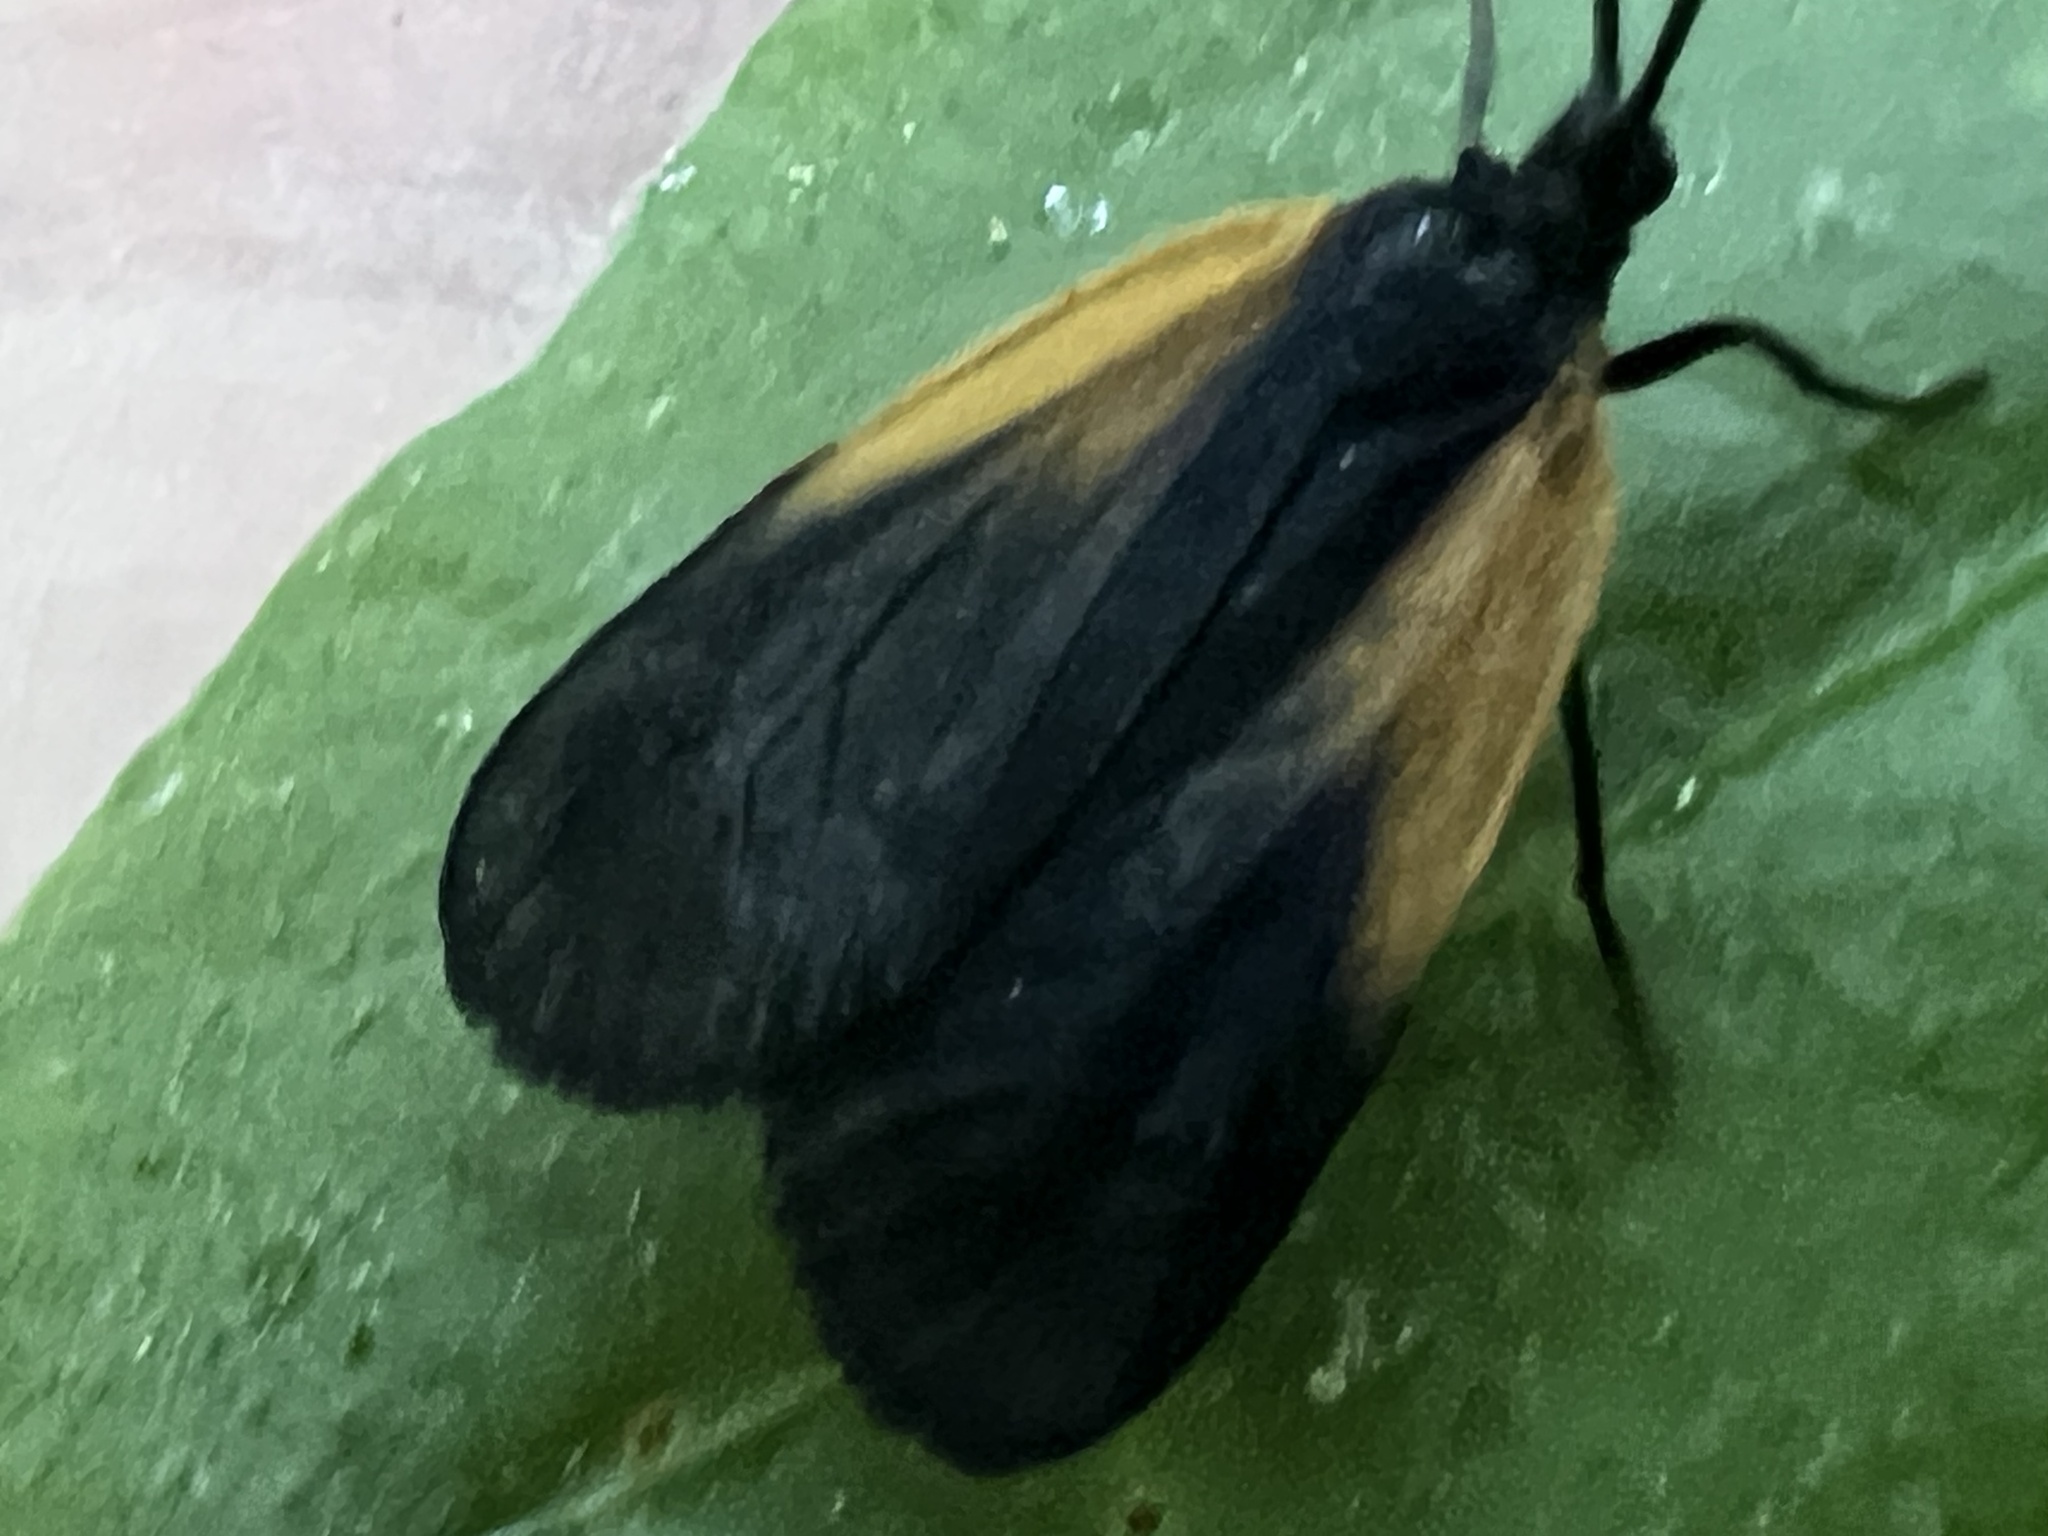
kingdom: Animalia
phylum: Arthropoda
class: Insecta
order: Lepidoptera
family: Zygaenidae
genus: Malthaca
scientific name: Malthaca dimidiata
